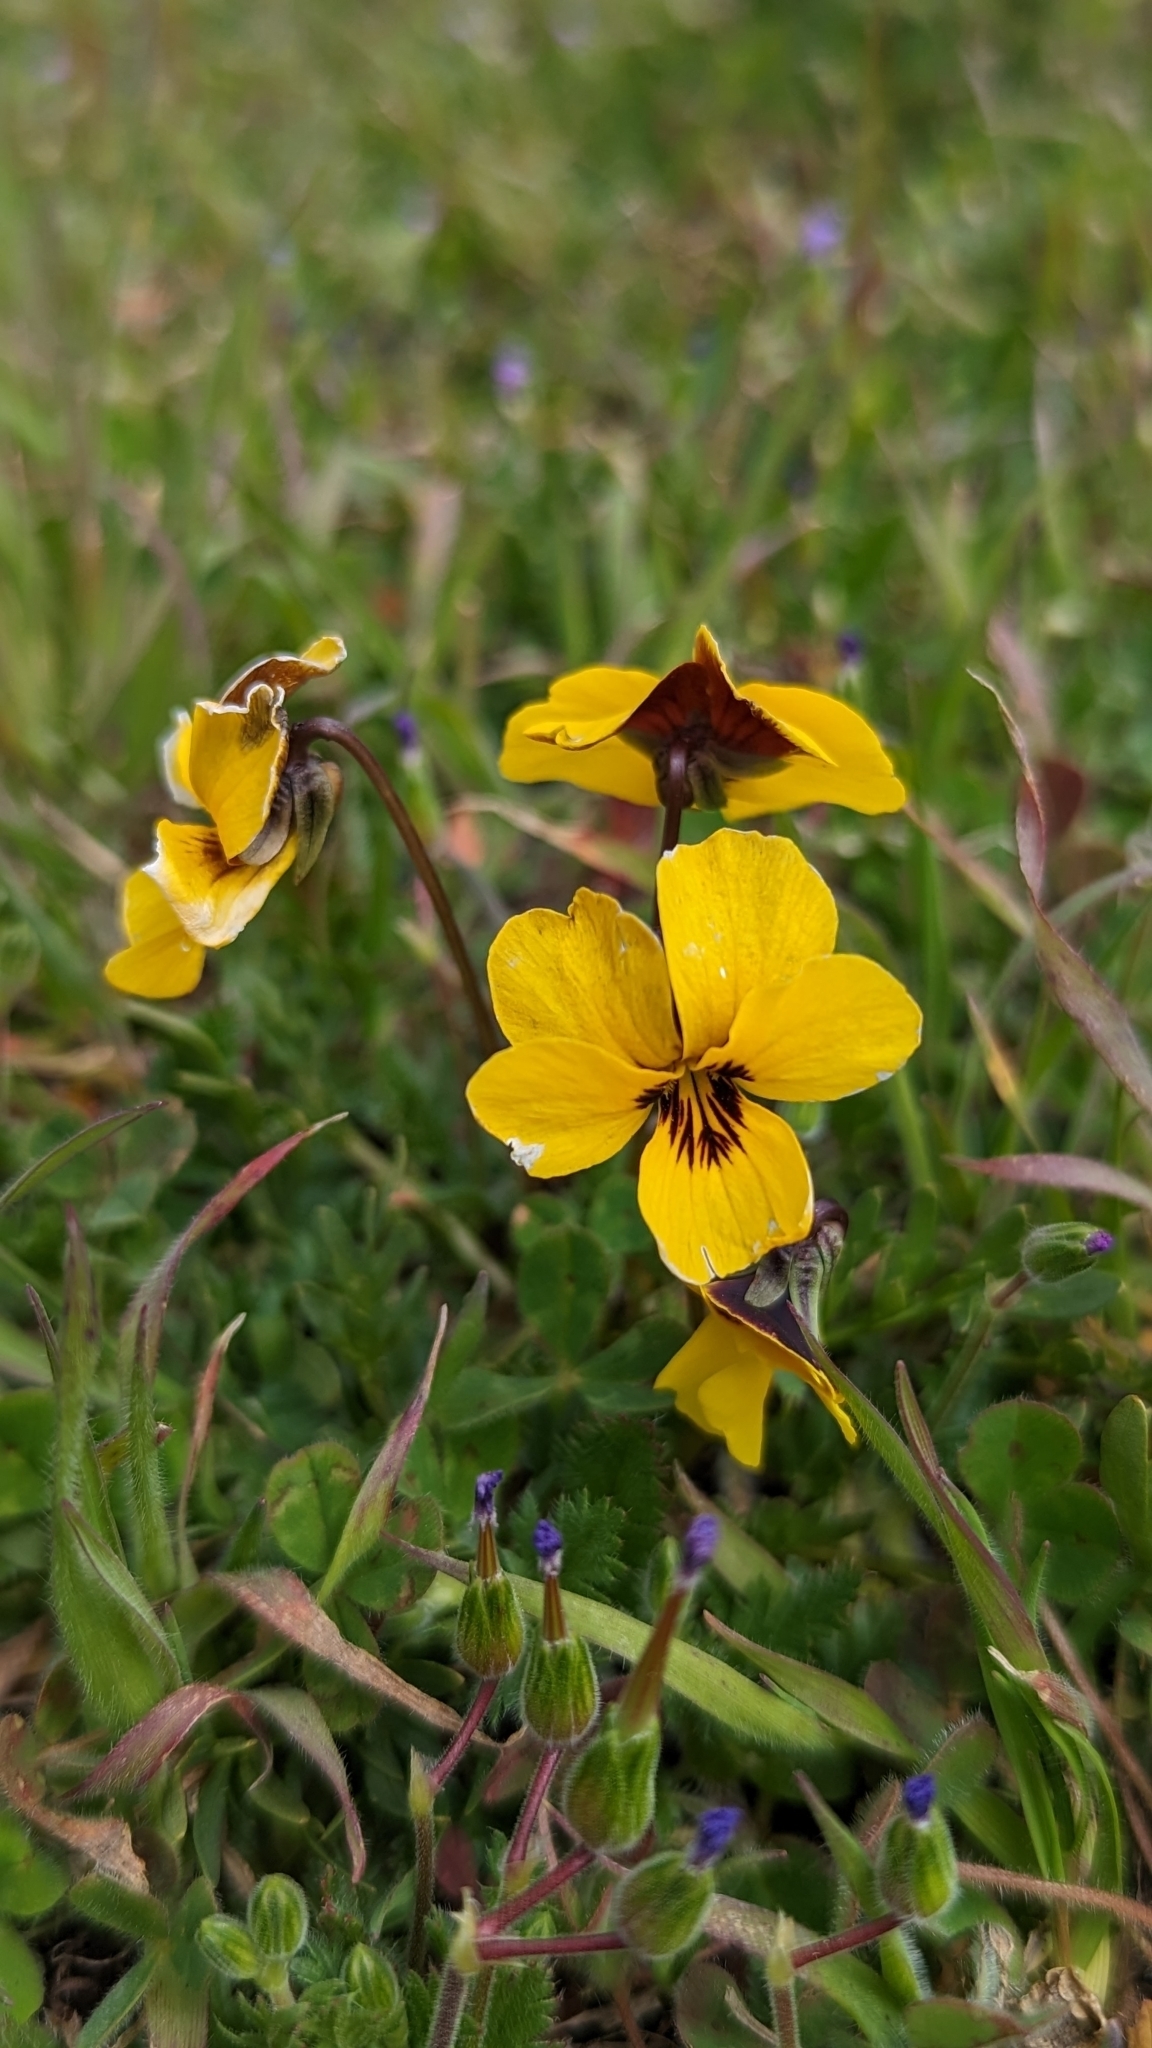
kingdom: Plantae
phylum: Tracheophyta
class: Magnoliopsida
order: Malpighiales
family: Violaceae
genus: Viola
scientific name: Viola douglasii
